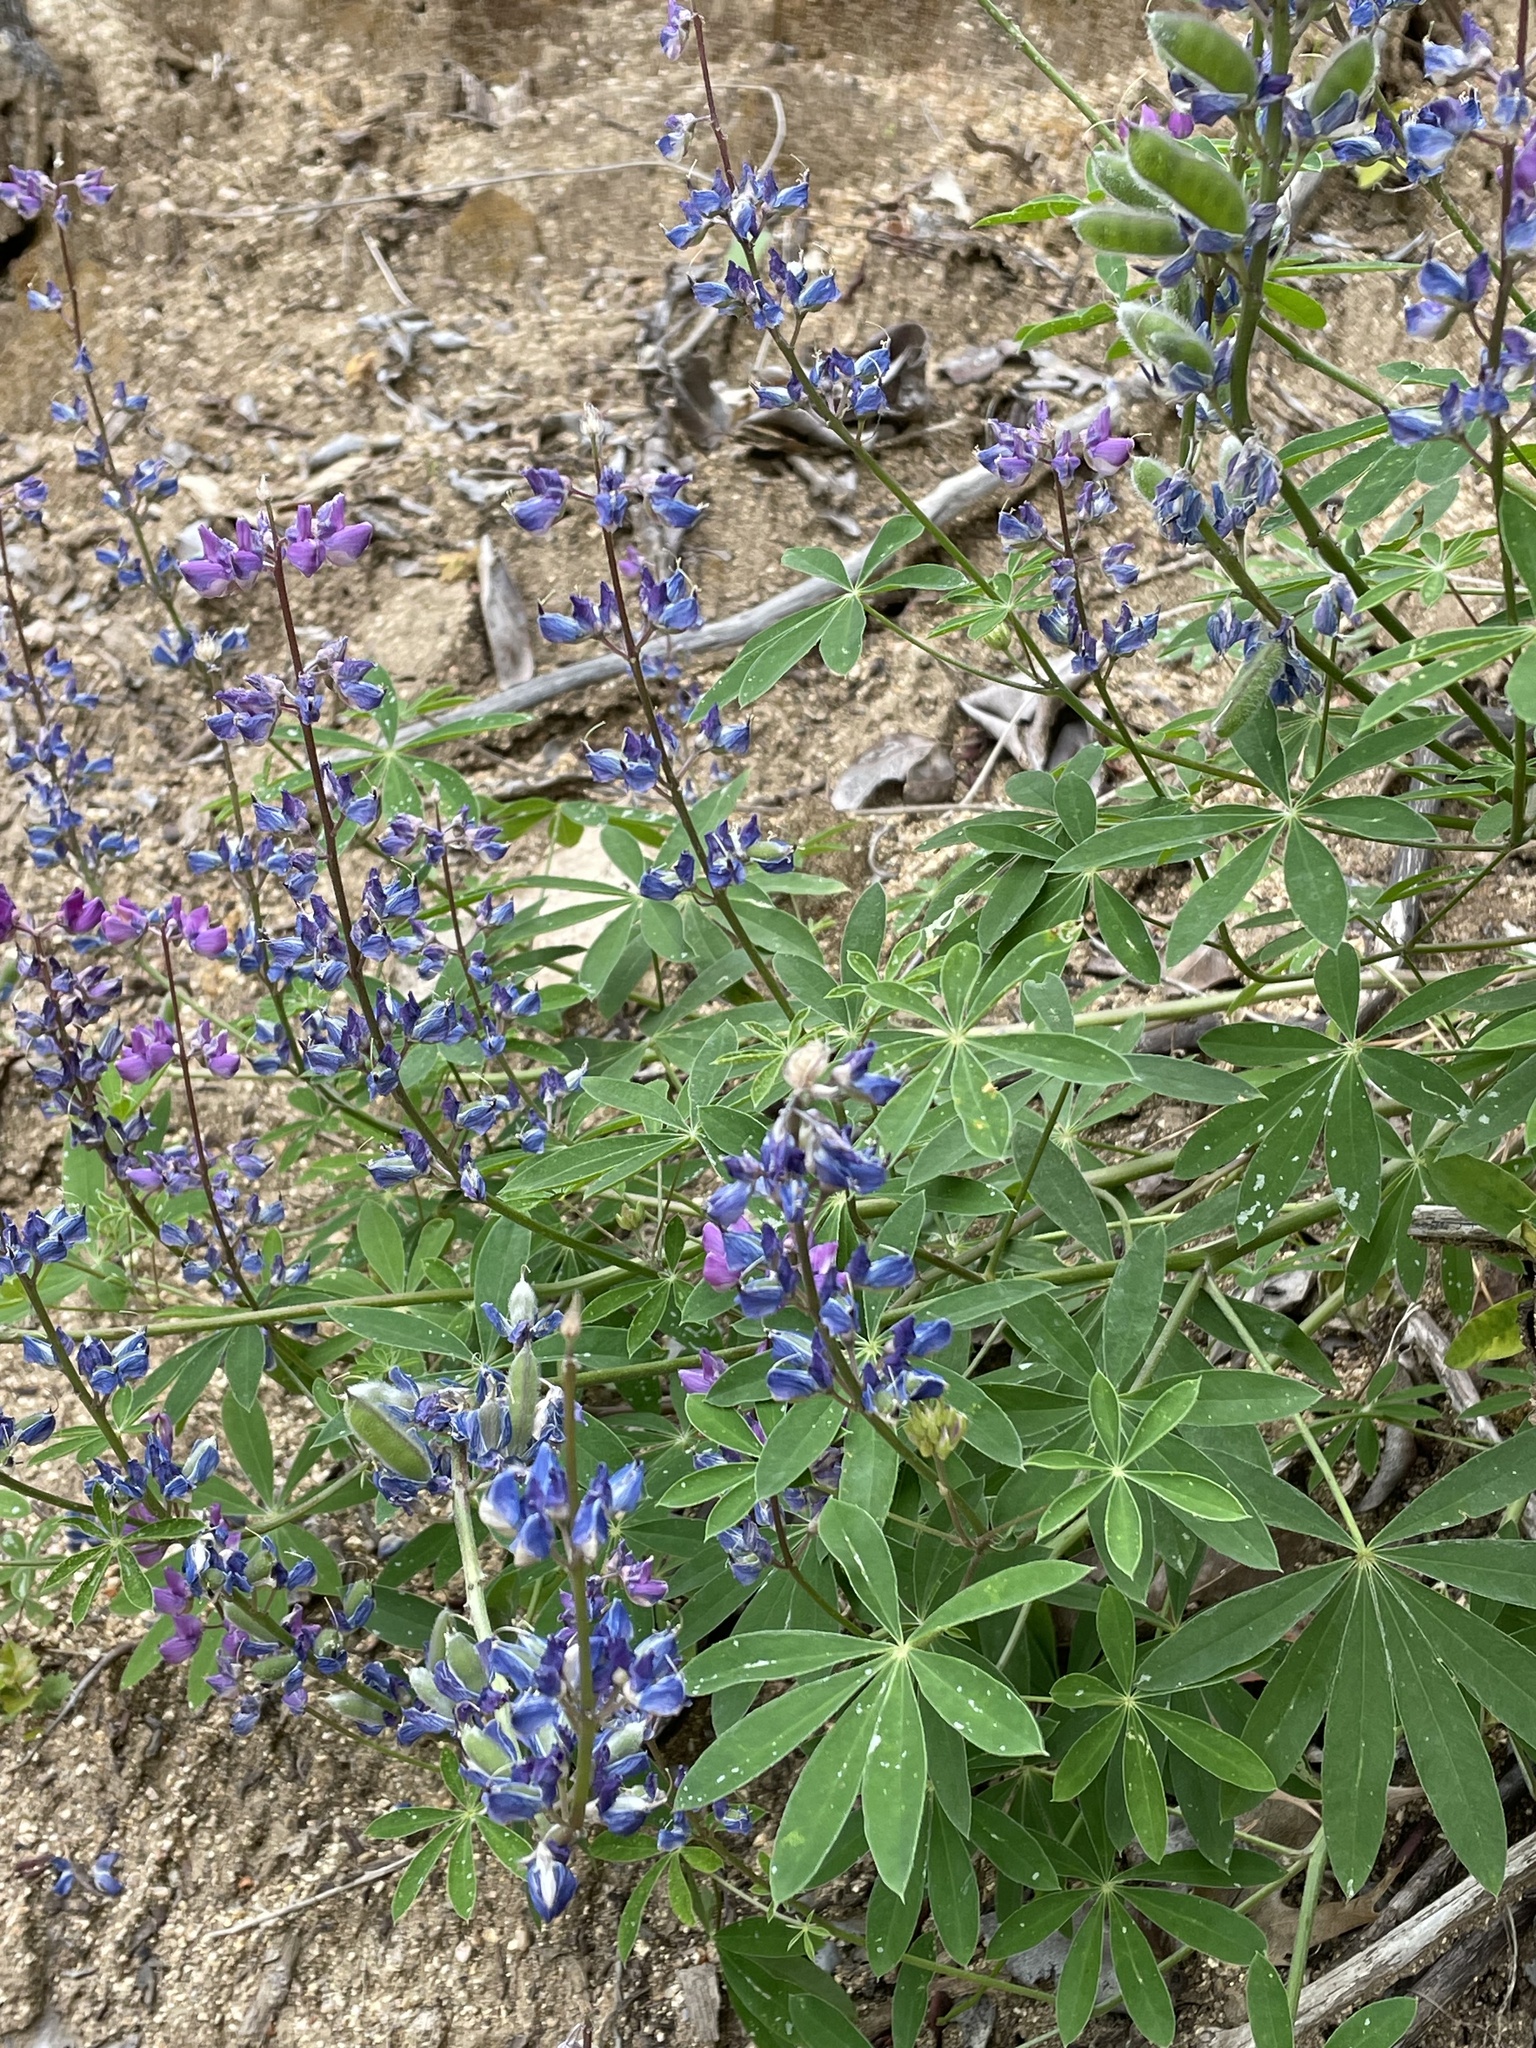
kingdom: Plantae
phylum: Tracheophyta
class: Magnoliopsida
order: Fabales
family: Fabaceae
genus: Lupinus
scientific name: Lupinus latifolius
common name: Broad-leaved lupine
